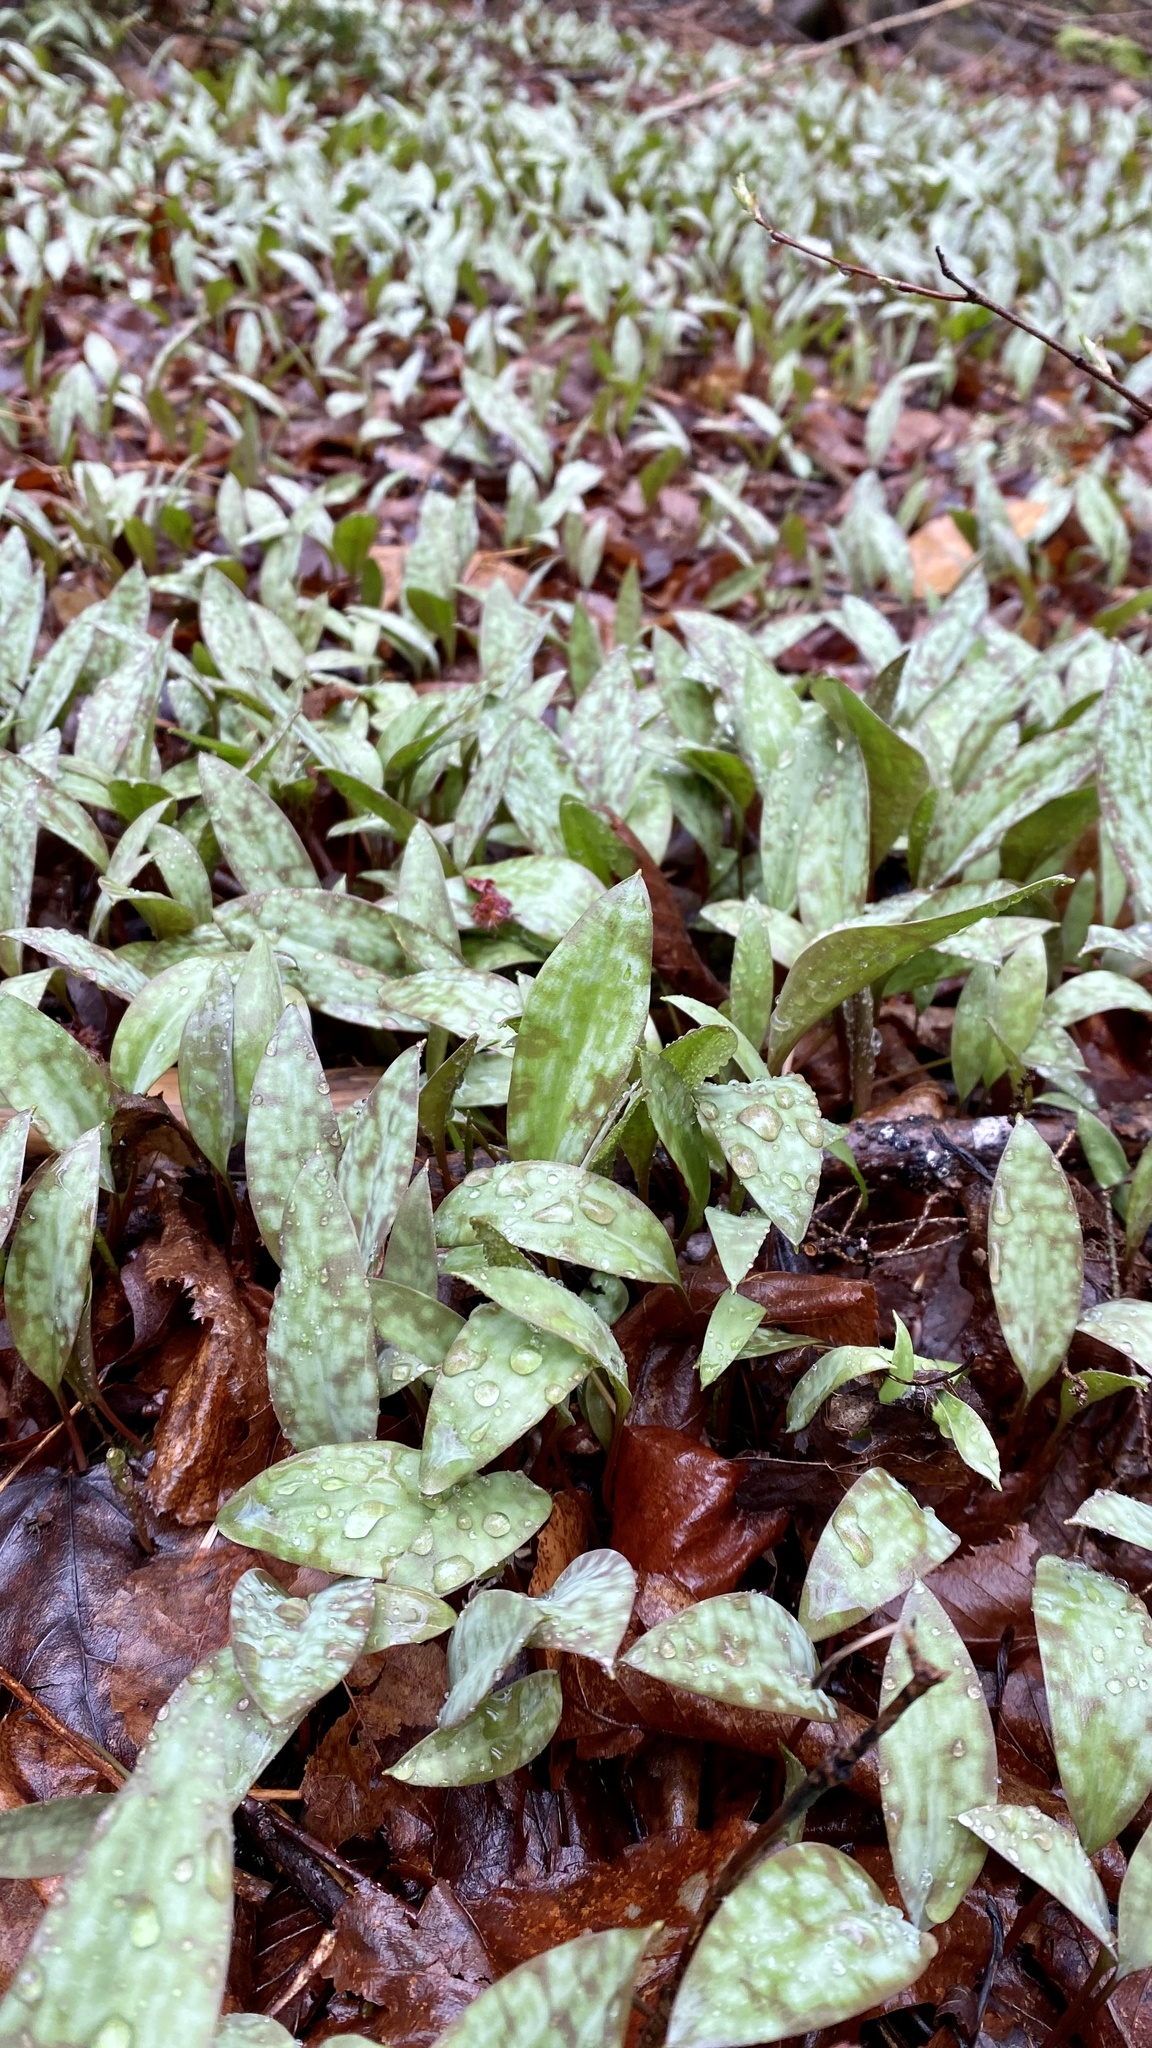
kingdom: Plantae
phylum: Tracheophyta
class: Liliopsida
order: Liliales
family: Liliaceae
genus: Erythronium
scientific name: Erythronium americanum
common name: Yellow adder's-tongue
